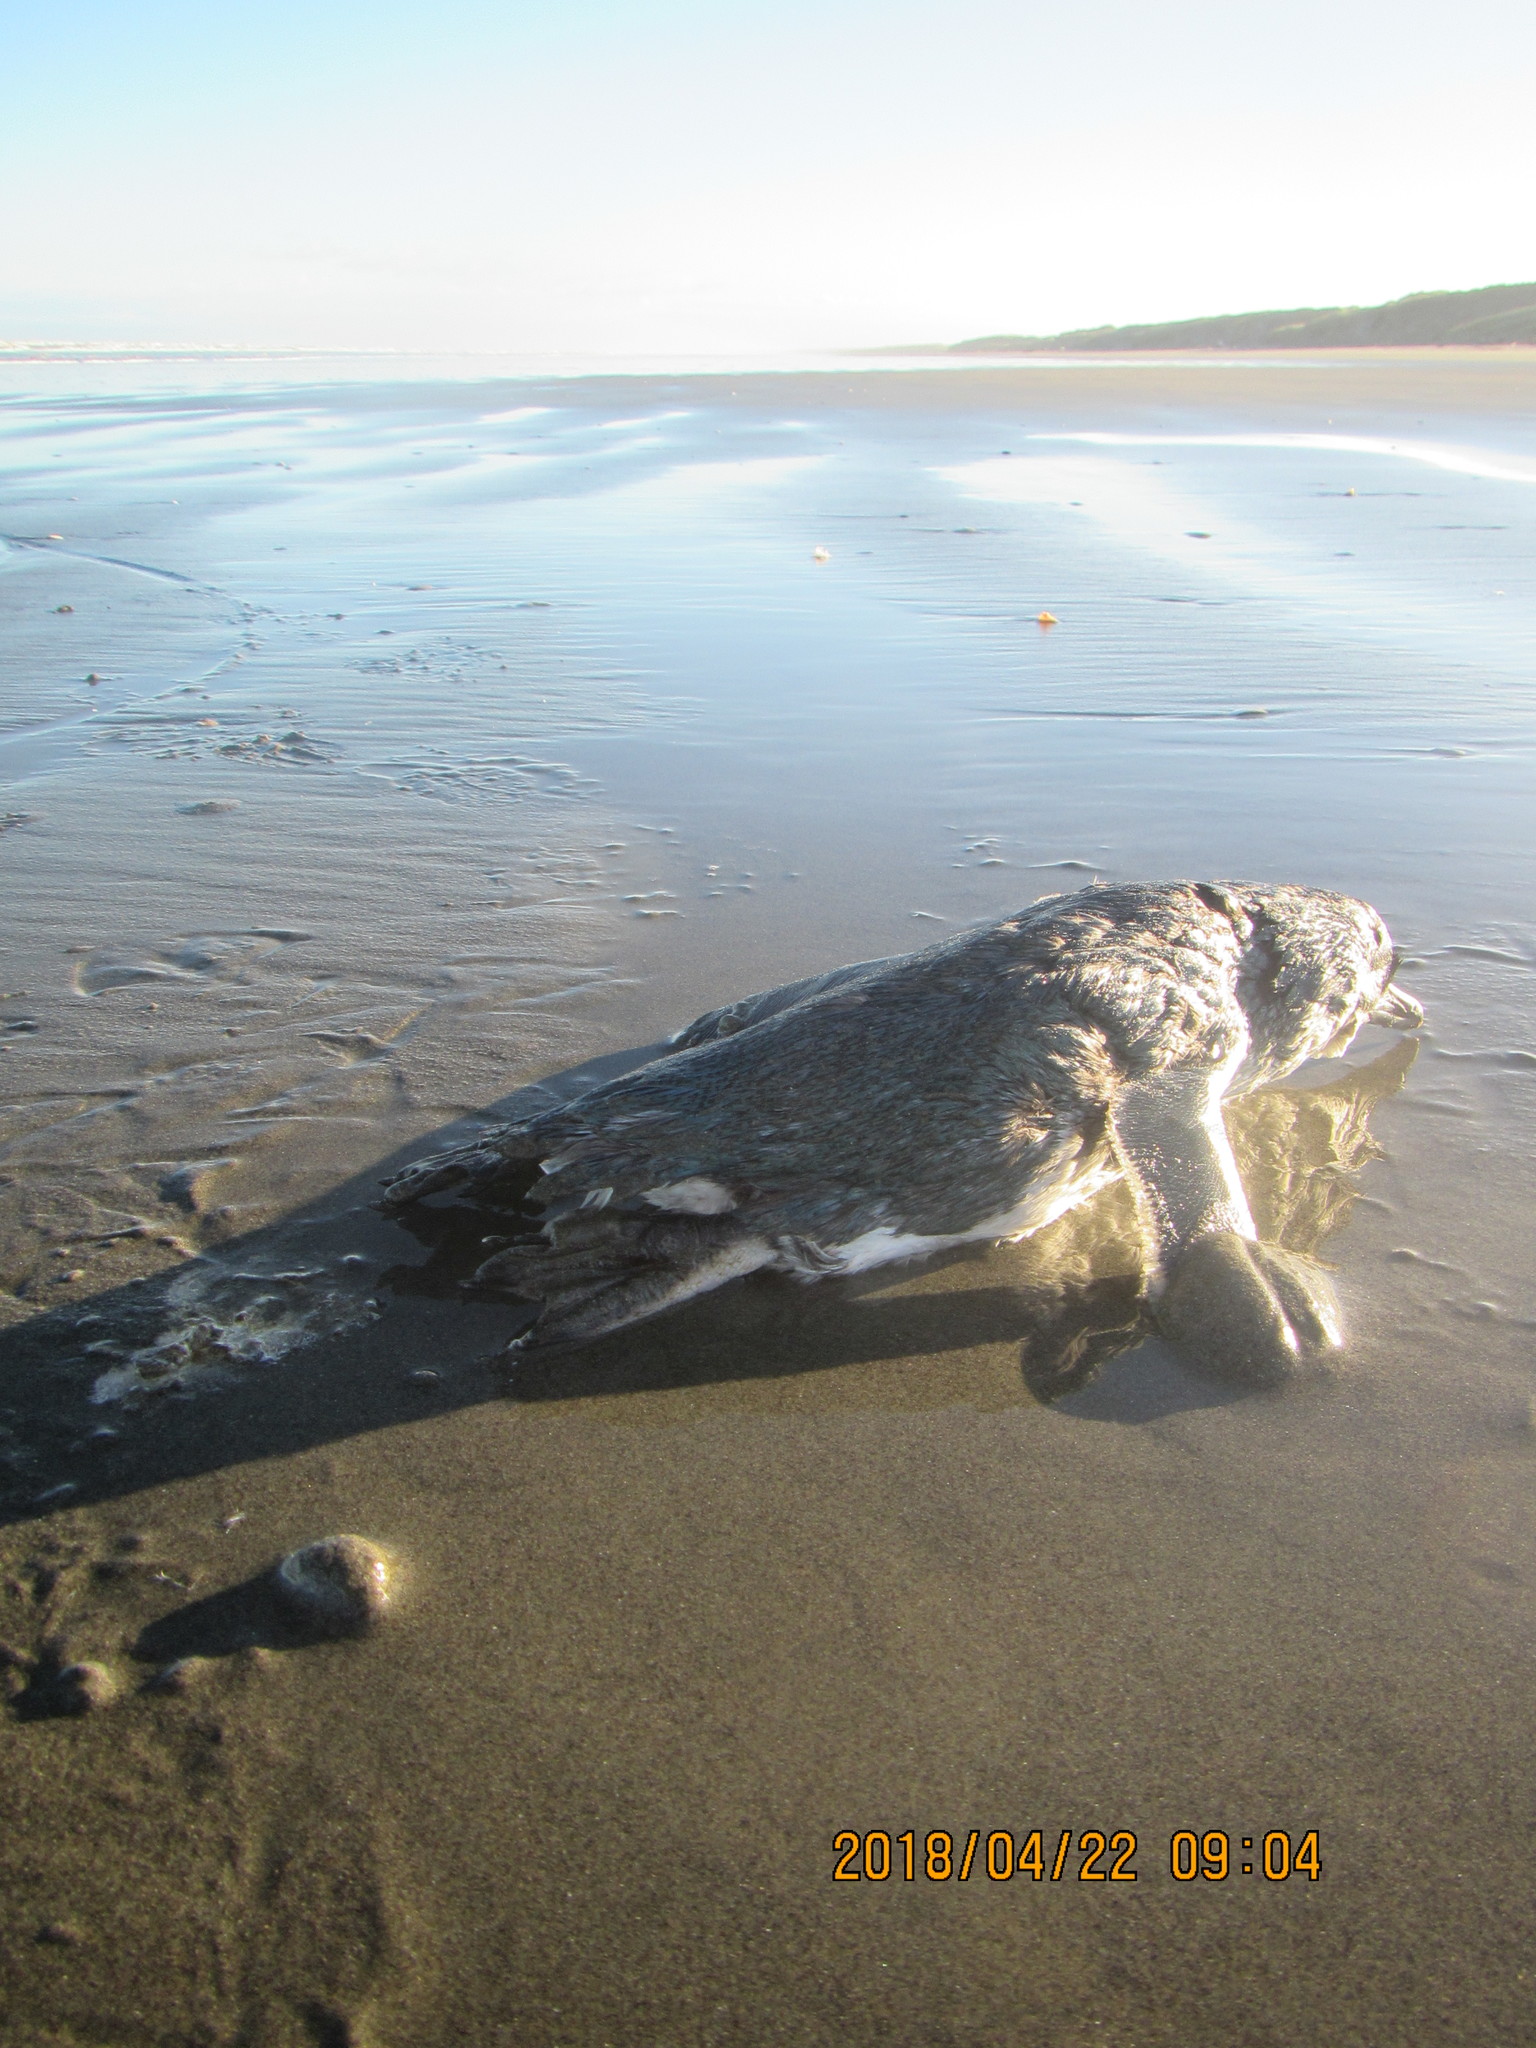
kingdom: Animalia
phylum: Chordata
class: Aves
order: Sphenisciformes
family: Spheniscidae
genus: Eudyptula
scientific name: Eudyptula minor
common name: Little penguin
